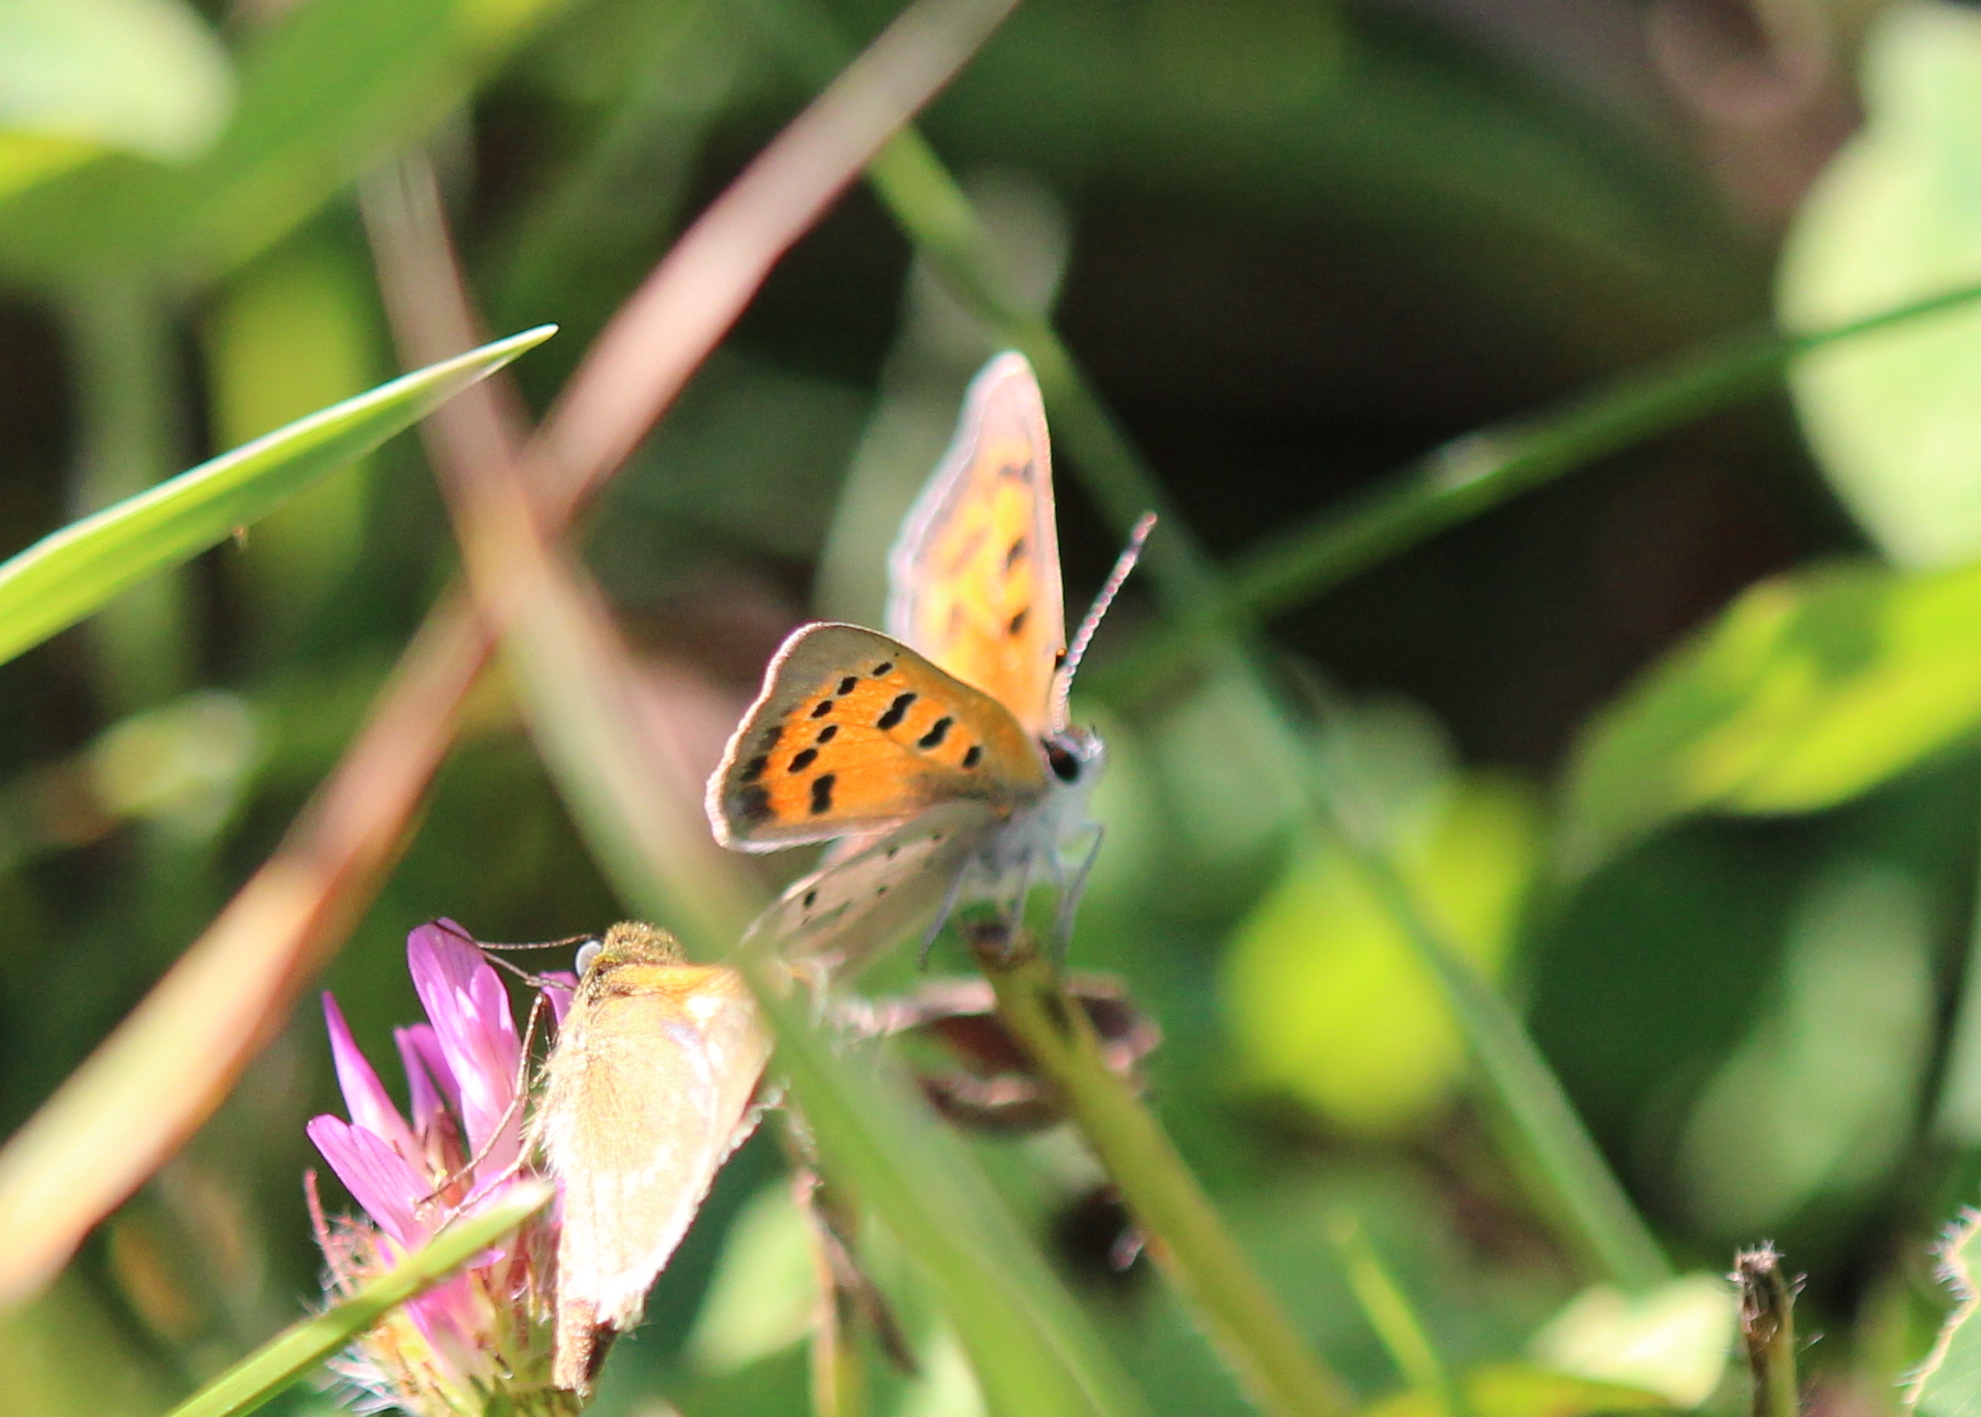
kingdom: Animalia
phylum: Arthropoda
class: Insecta
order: Lepidoptera
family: Lycaenidae
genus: Lycaena
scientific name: Lycaena hypophlaeas
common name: American copper
